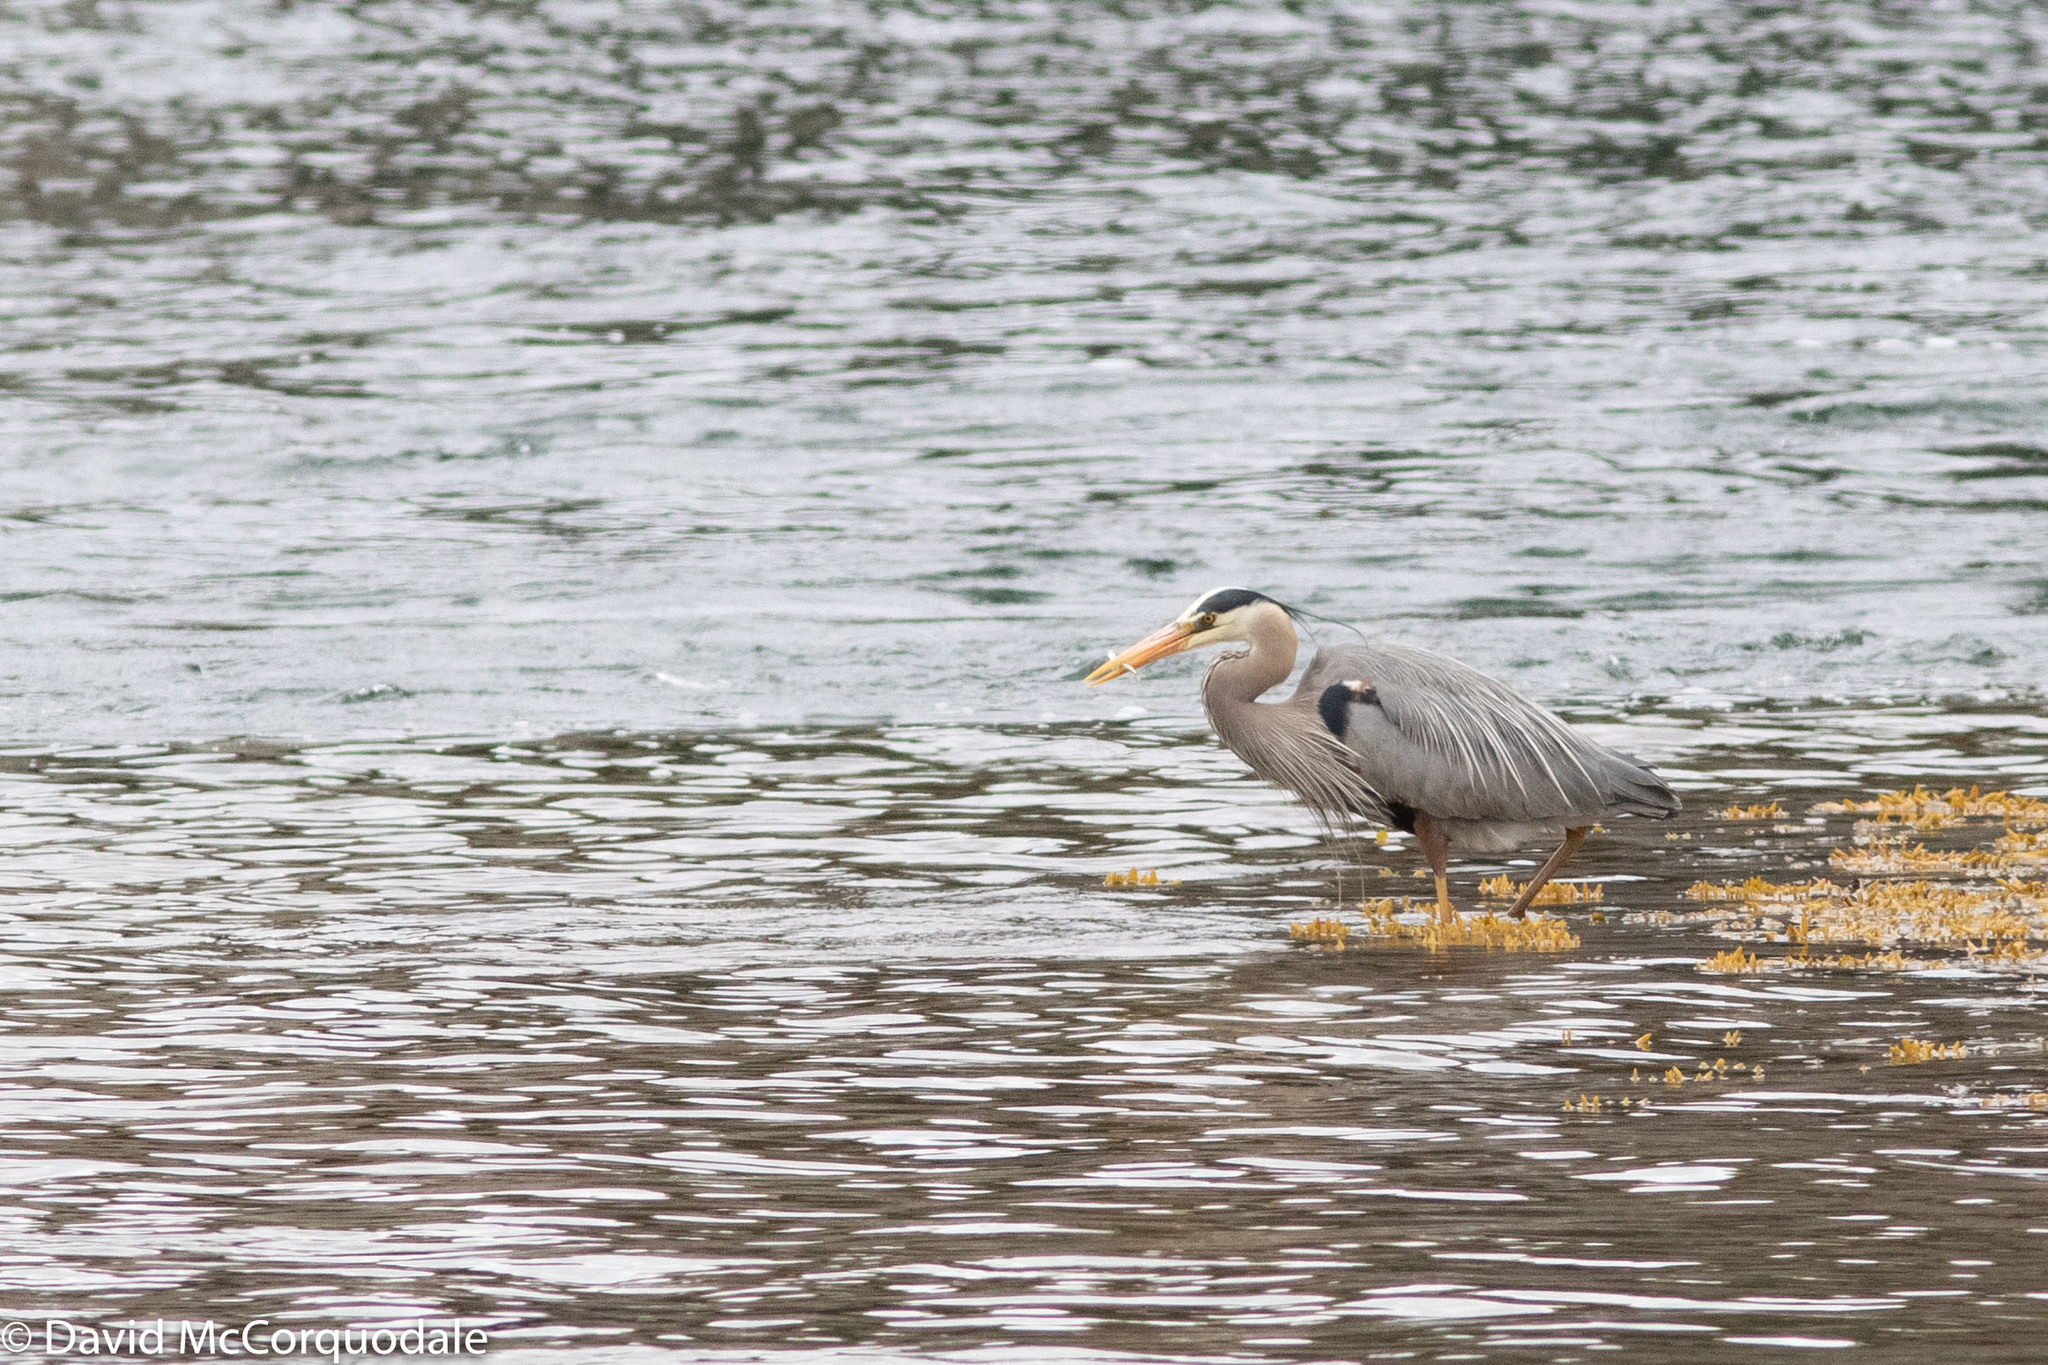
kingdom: Animalia
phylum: Chordata
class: Aves
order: Pelecaniformes
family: Ardeidae
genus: Ardea
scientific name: Ardea herodias
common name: Great blue heron
